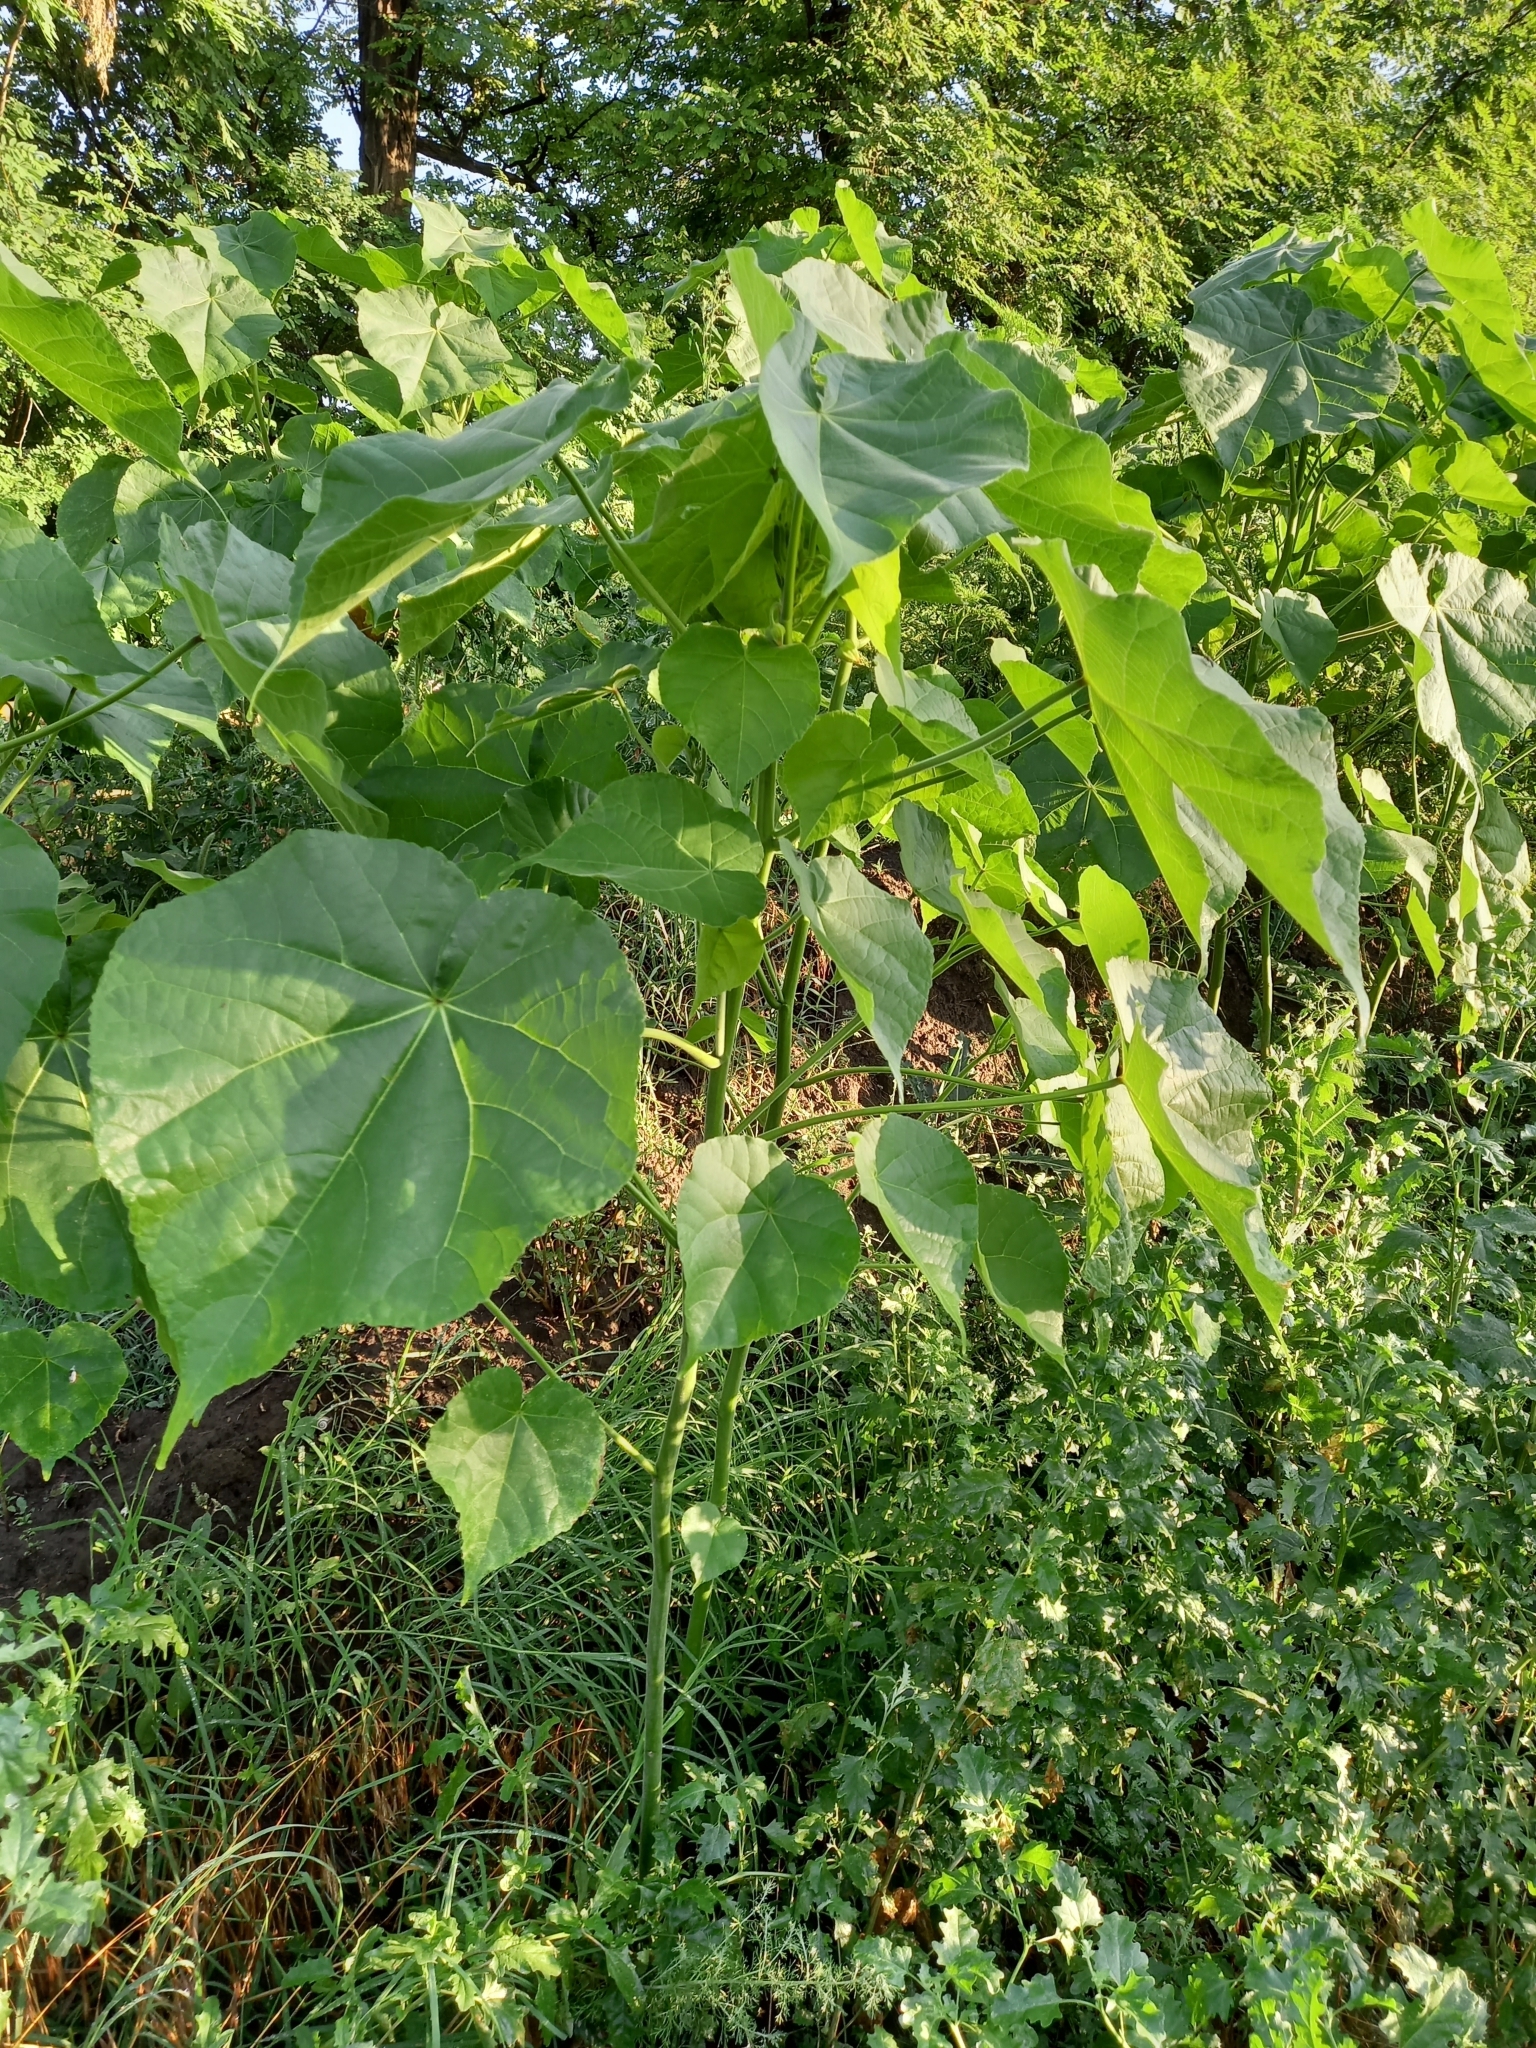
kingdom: Plantae
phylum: Tracheophyta
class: Magnoliopsida
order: Malvales
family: Malvaceae
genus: Abutilon
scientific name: Abutilon theophrasti
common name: Velvetleaf
